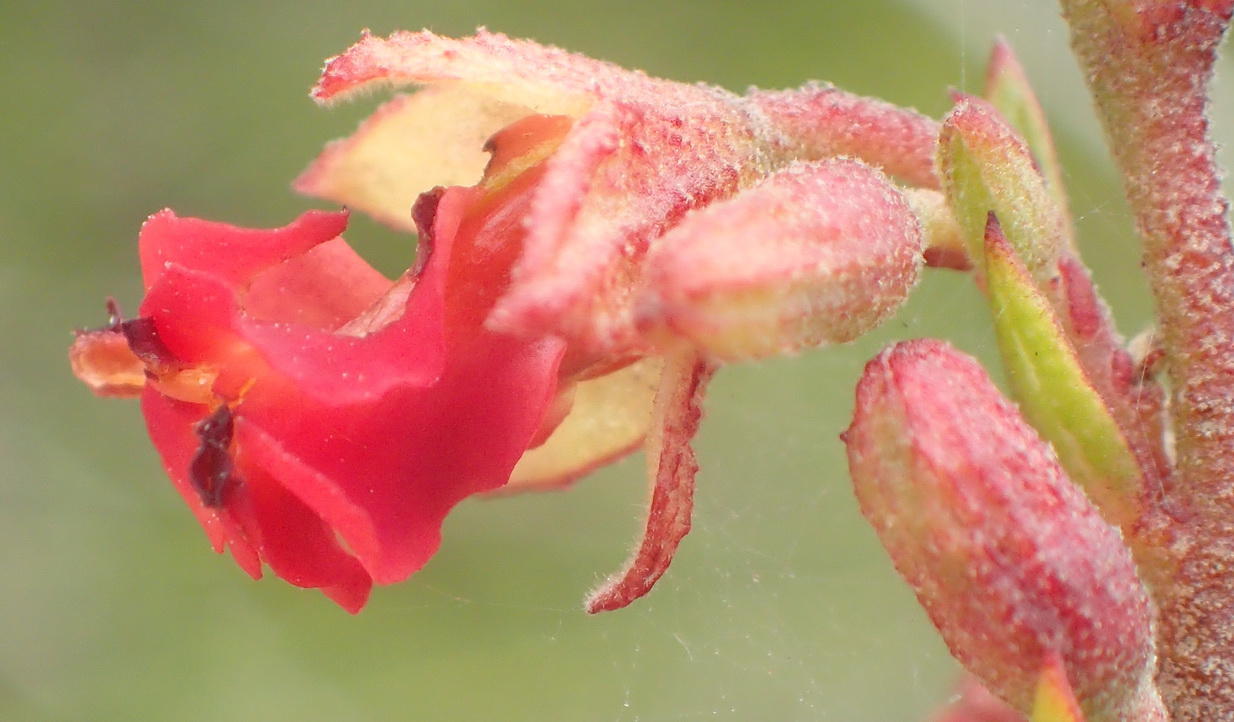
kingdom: Plantae
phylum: Tracheophyta
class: Magnoliopsida
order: Malvales
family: Malvaceae
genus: Hermannia
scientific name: Hermannia flammea
